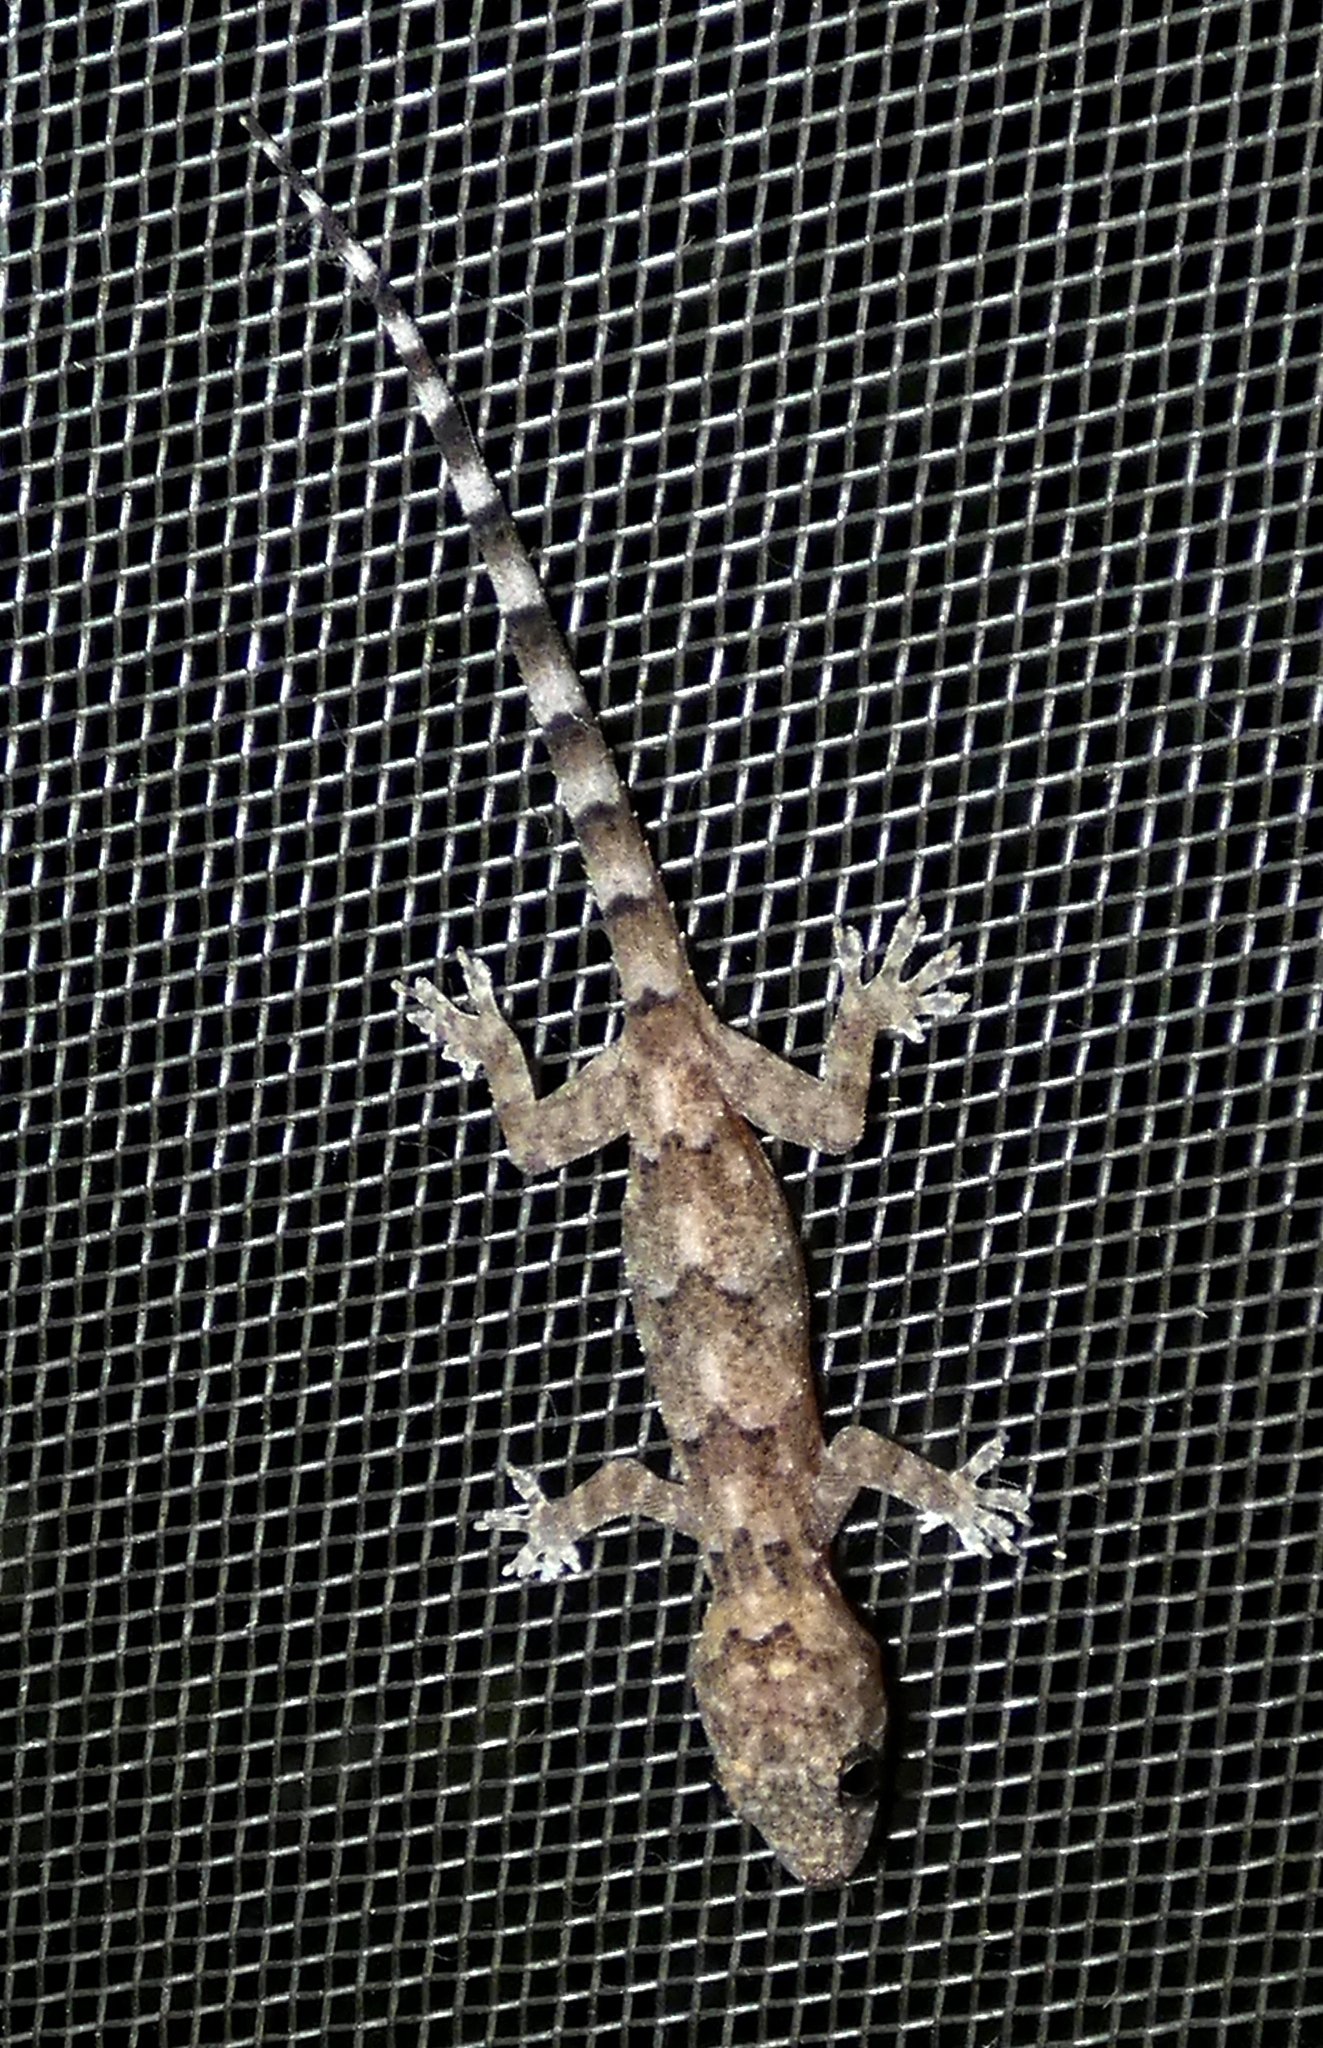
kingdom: Animalia
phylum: Chordata
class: Squamata
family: Gekkonidae
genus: Hemidactylus
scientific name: Hemidactylus mabouia
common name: House gecko
